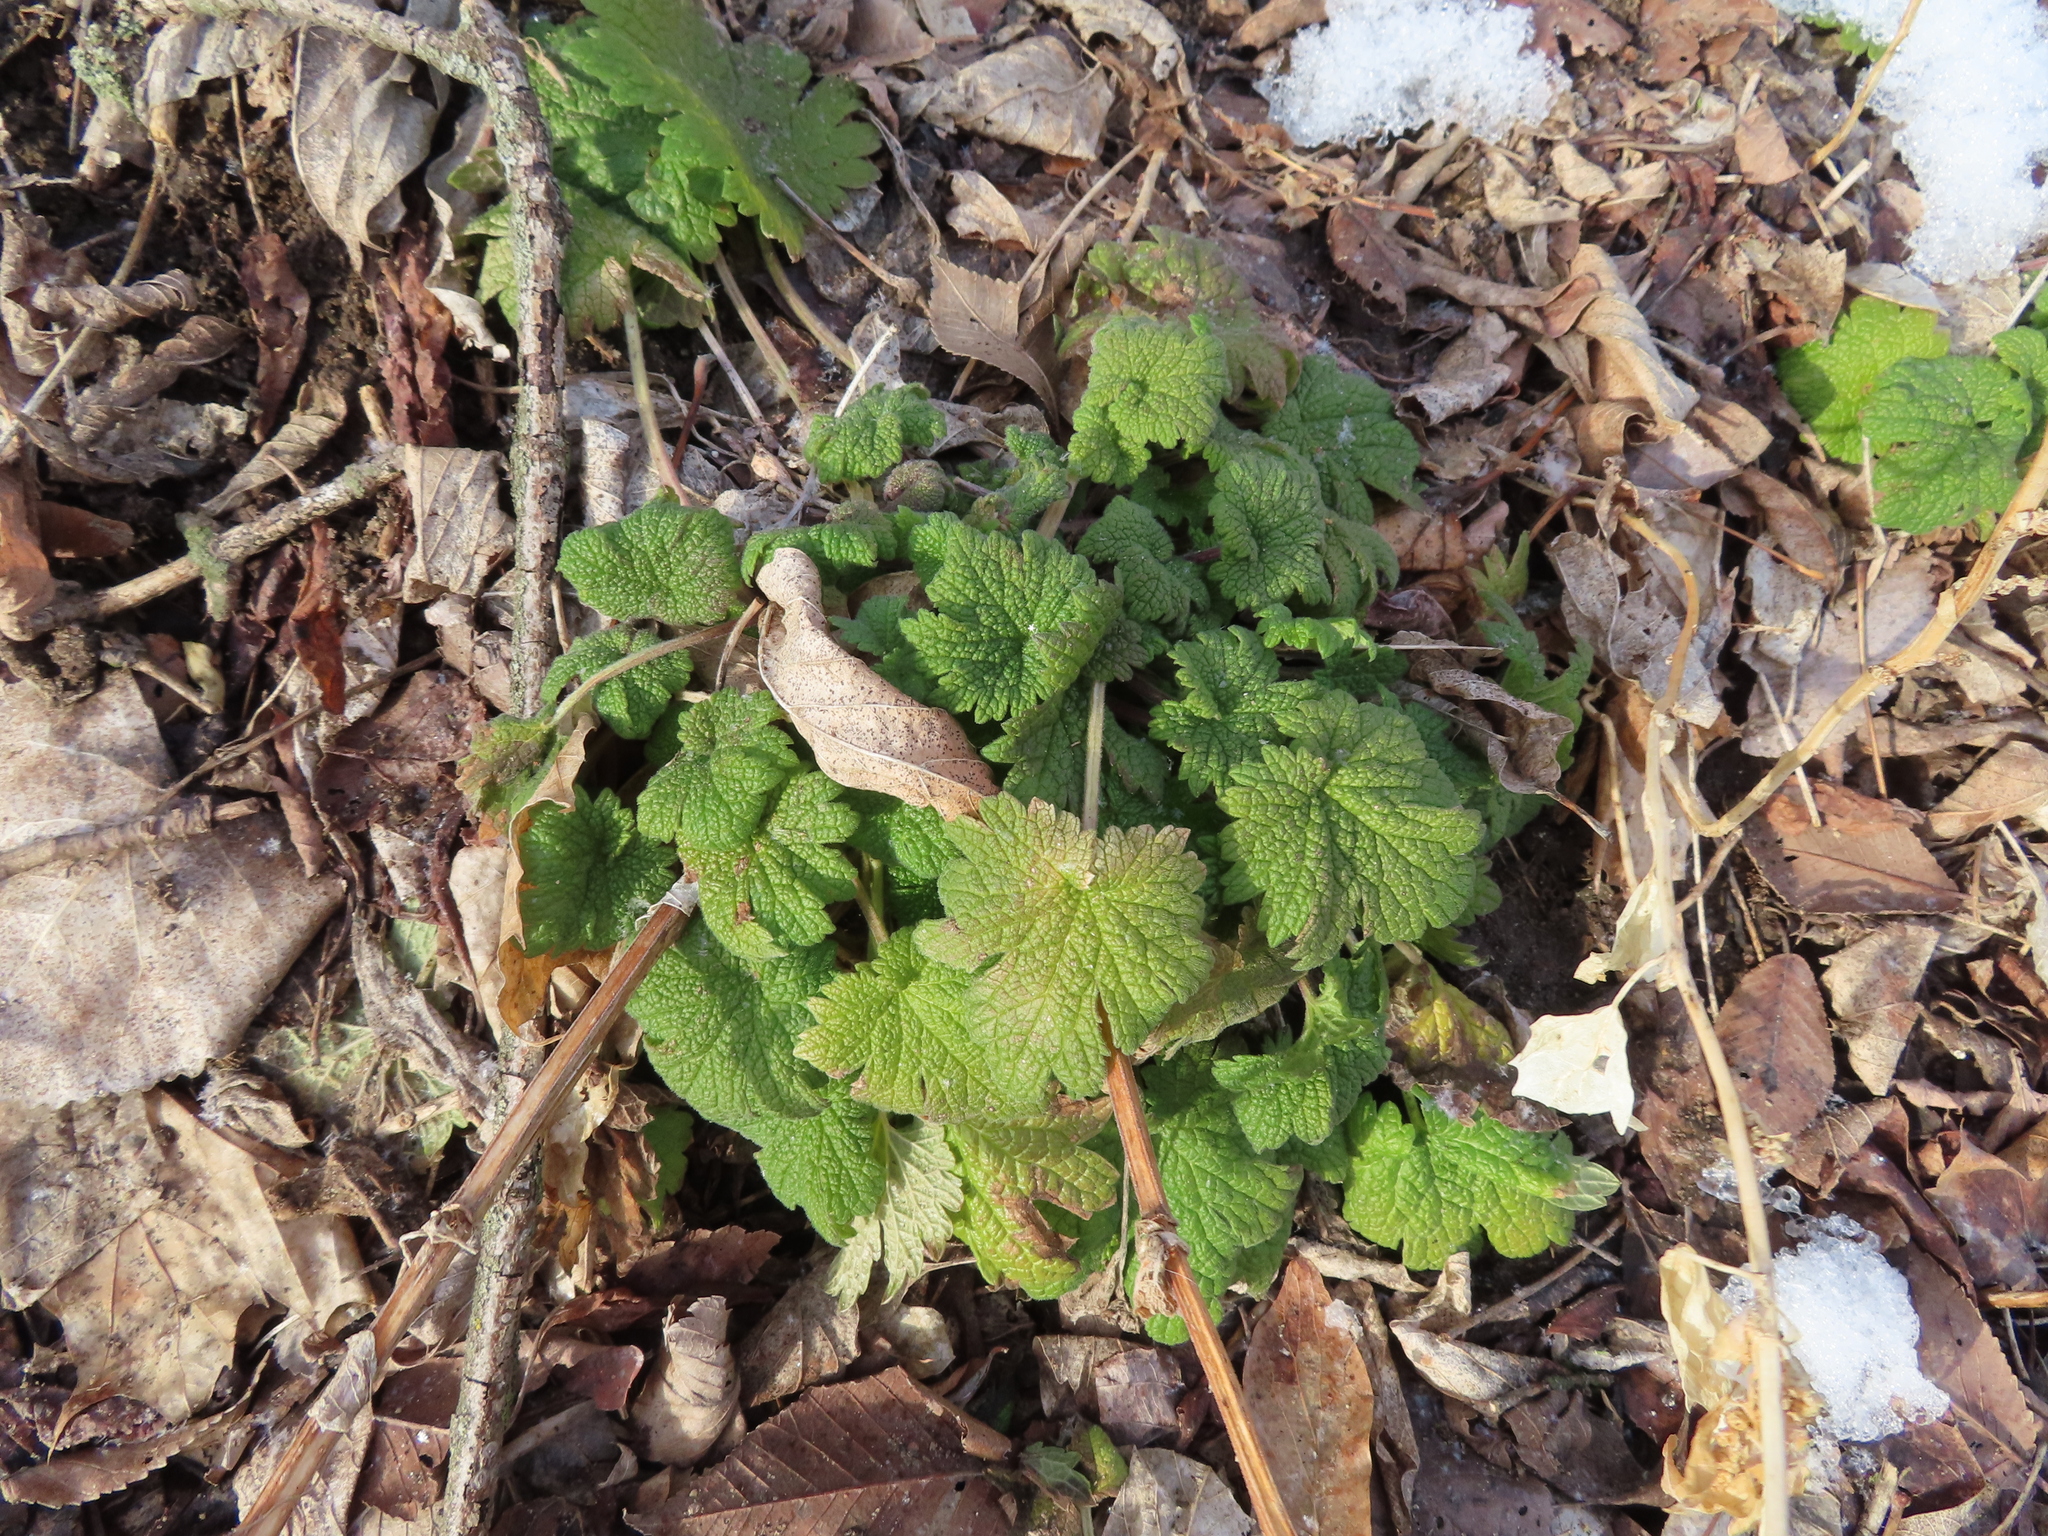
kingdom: Plantae
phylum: Tracheophyta
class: Magnoliopsida
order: Lamiales
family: Lamiaceae
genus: Leonurus
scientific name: Leonurus cardiaca
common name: Motherwort
